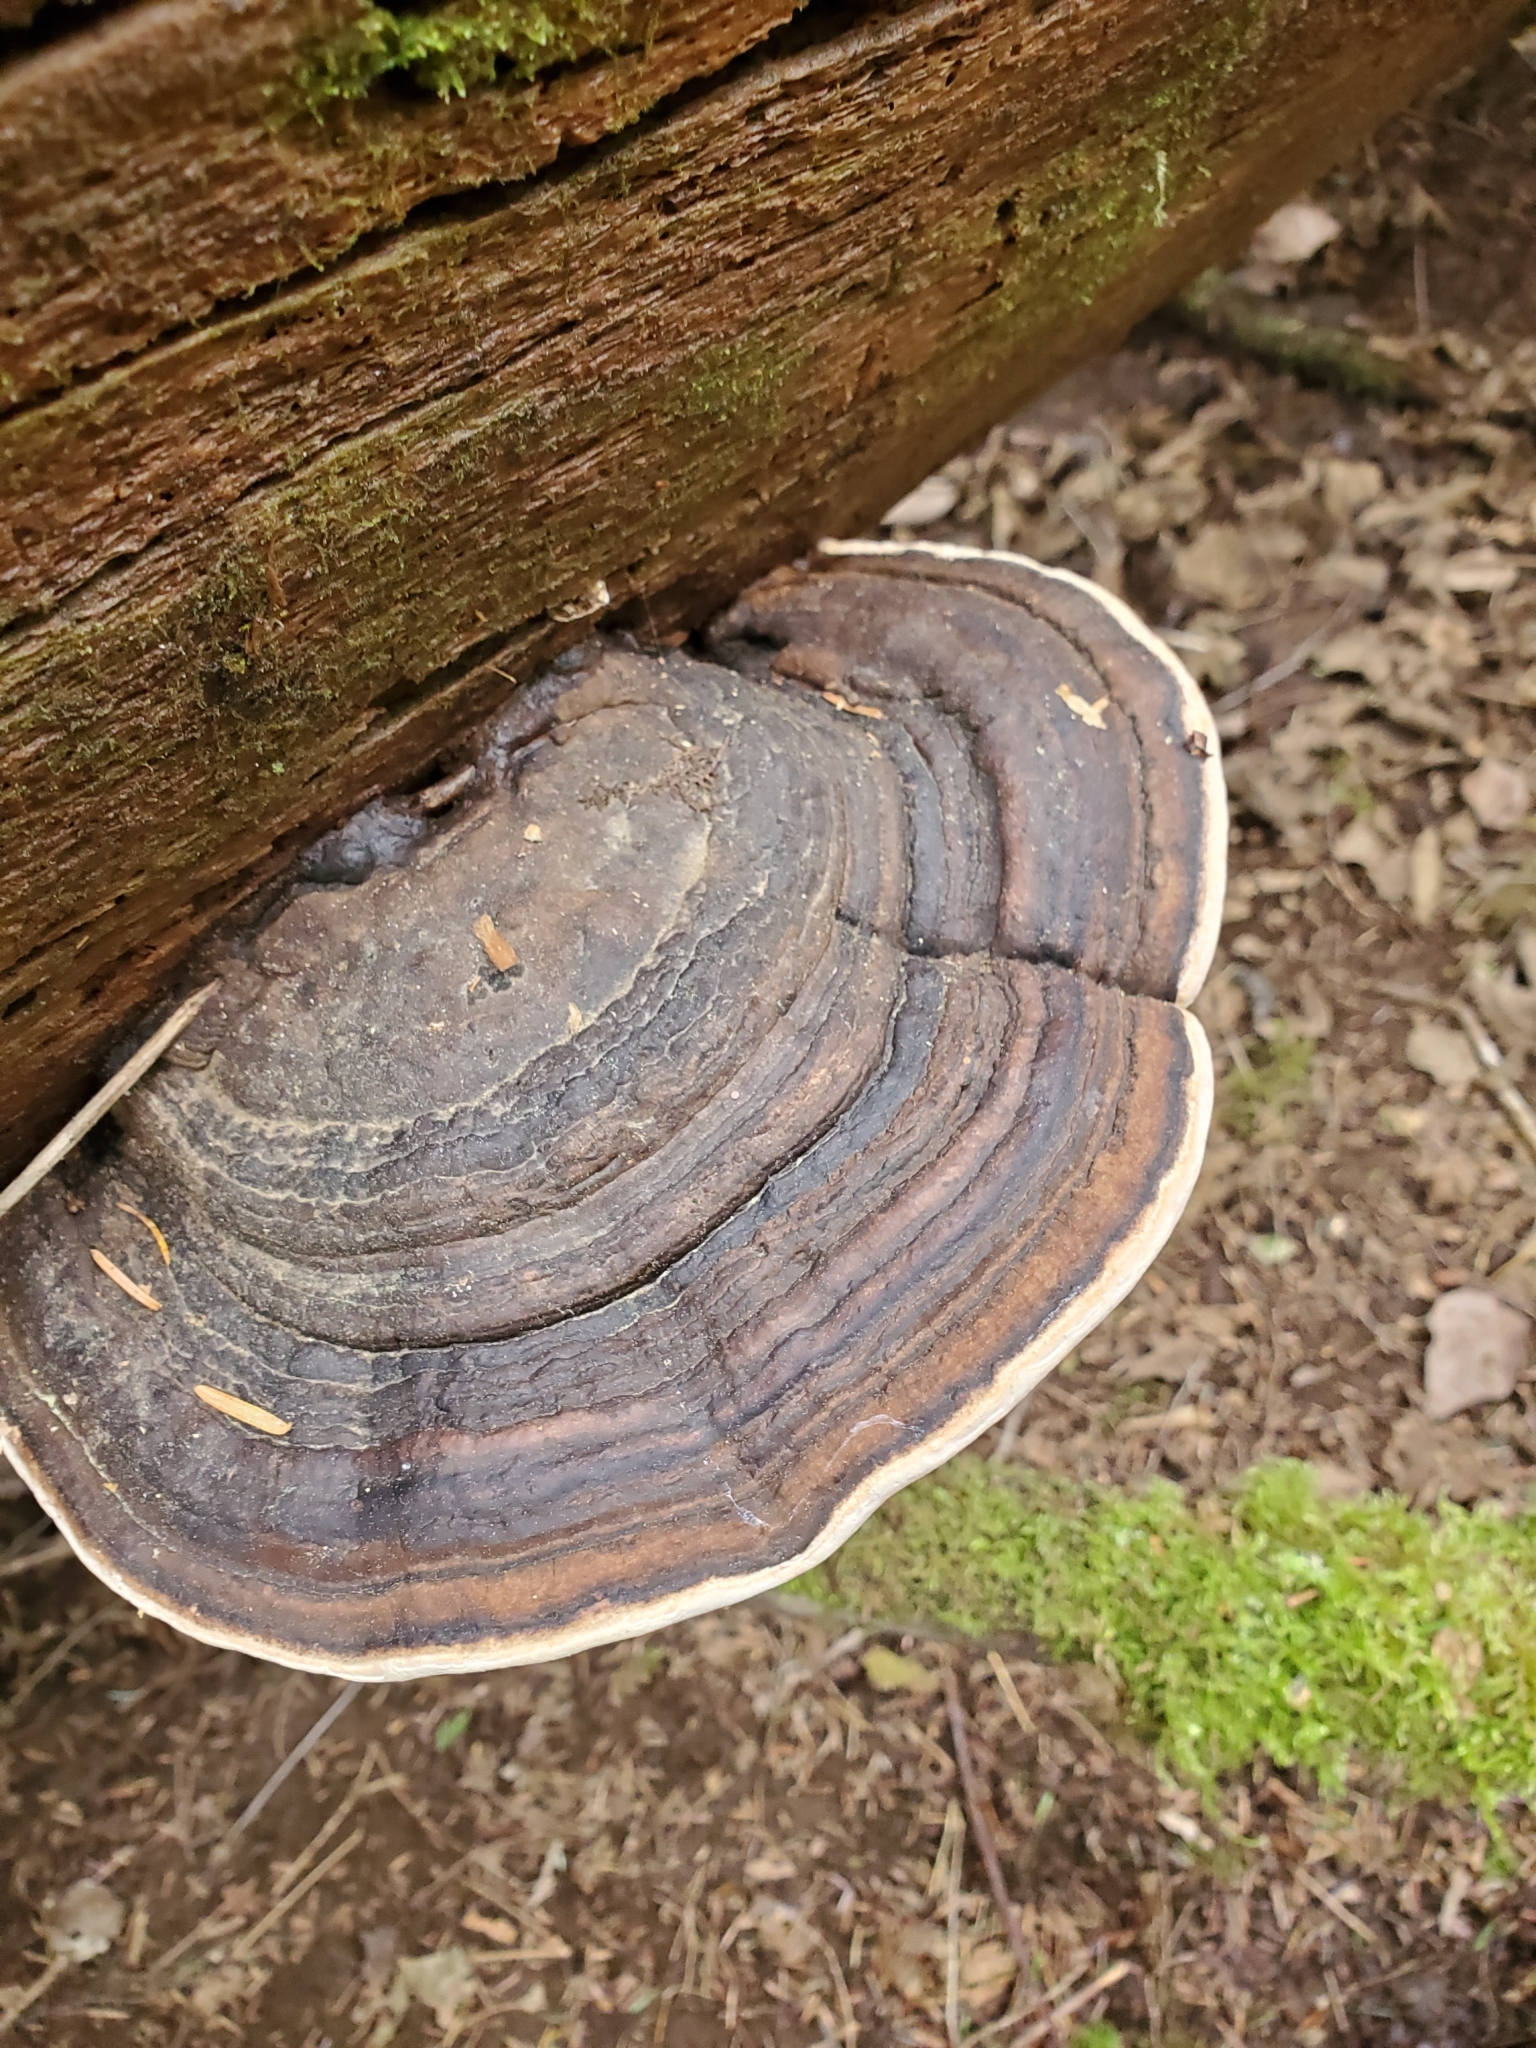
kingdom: Fungi
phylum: Basidiomycota
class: Agaricomycetes
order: Polyporales
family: Fomitopsidaceae
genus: Fomitopsis
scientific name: Fomitopsis ochracea
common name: American brown fomitopsis
